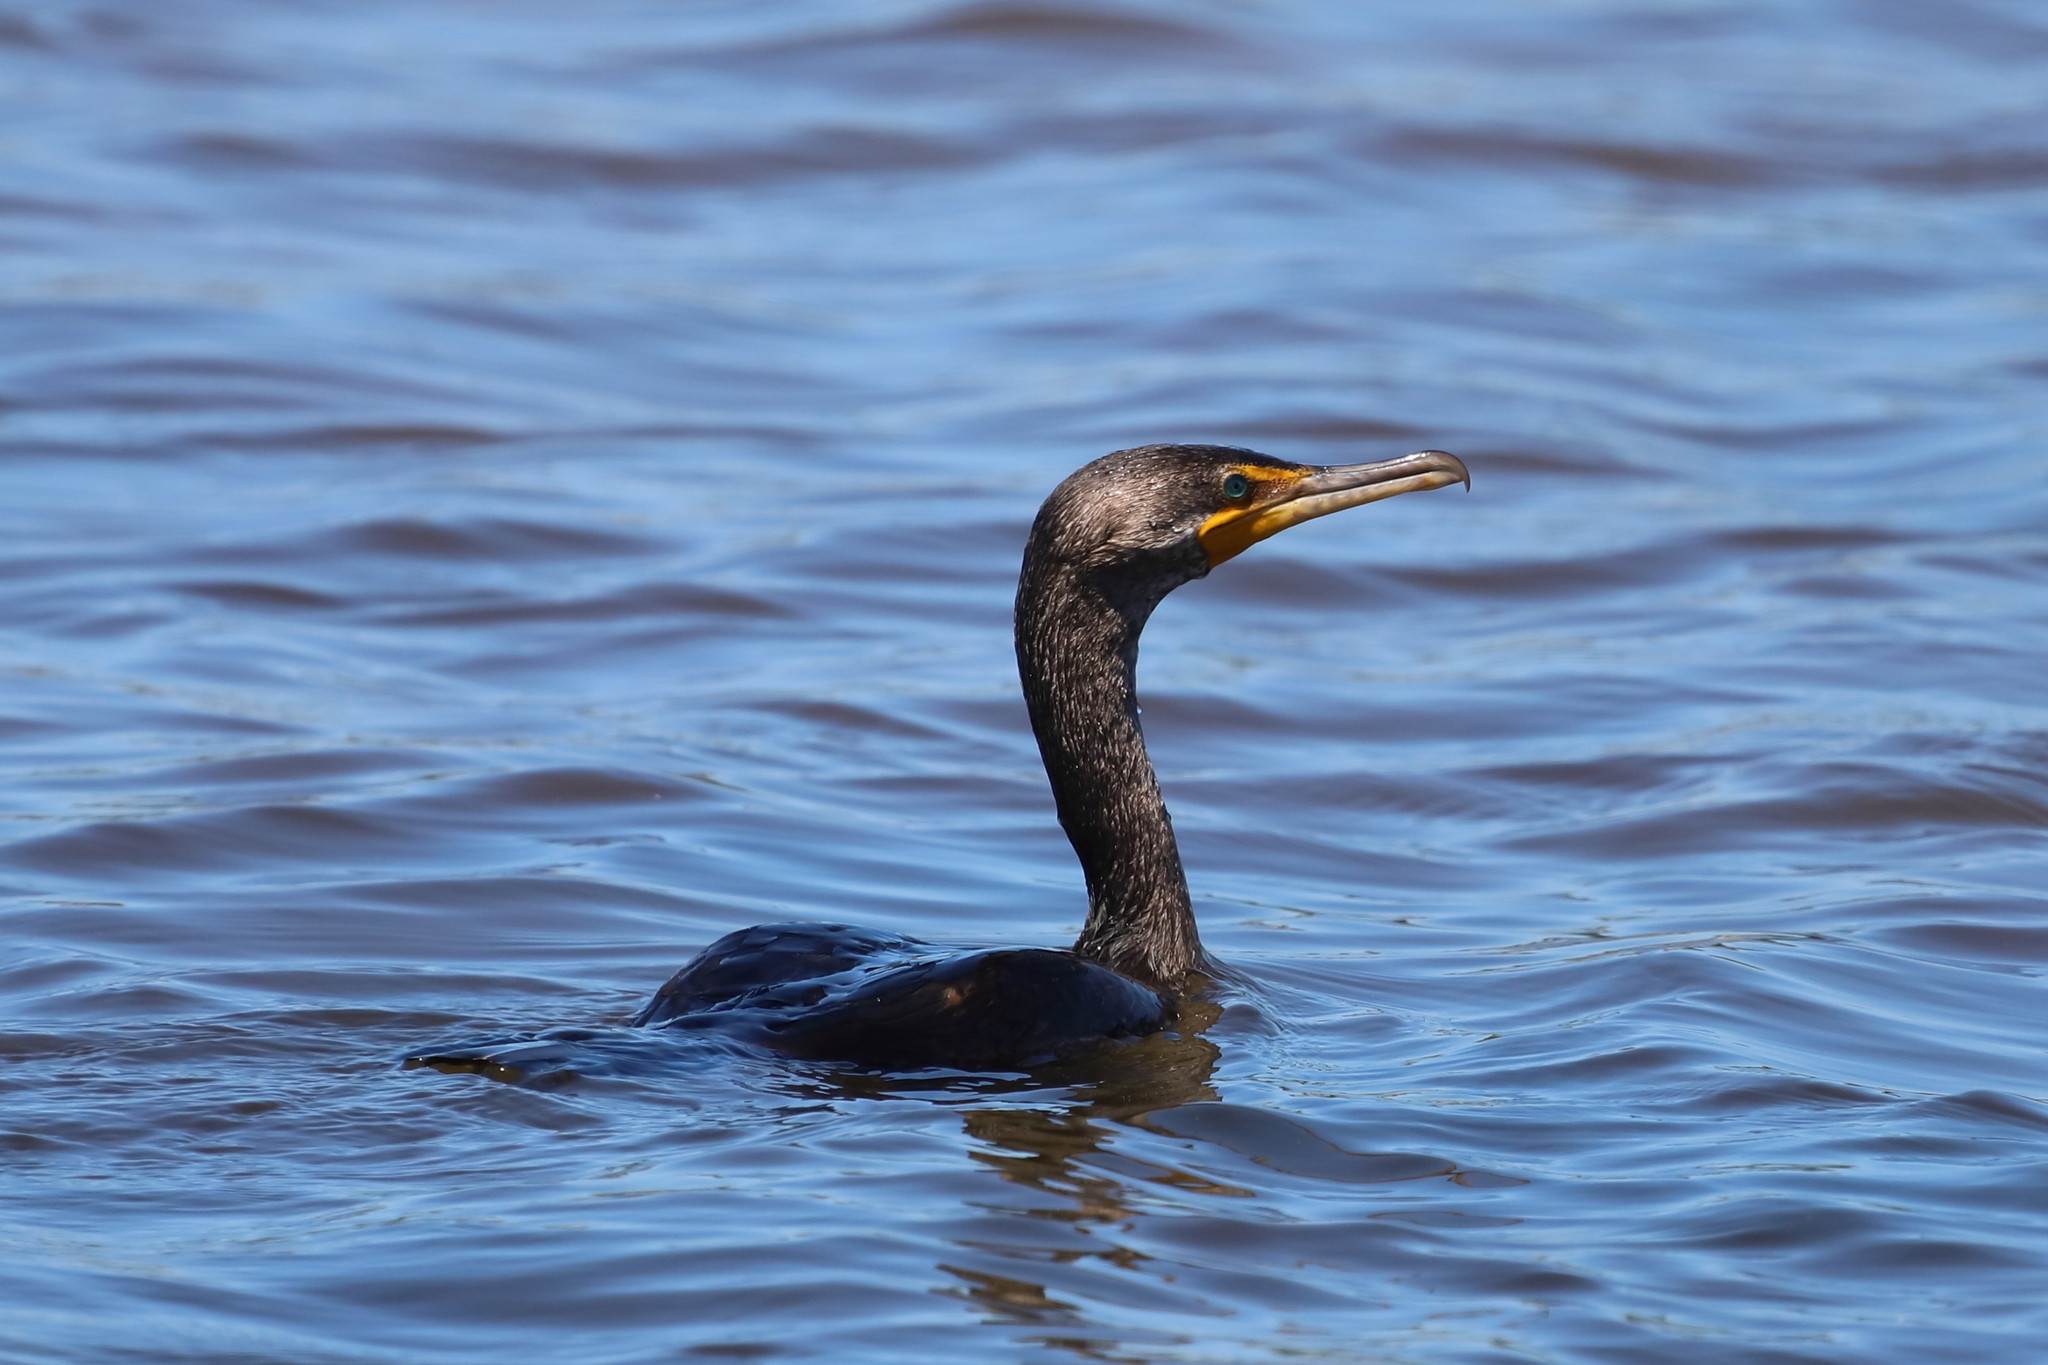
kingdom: Animalia
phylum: Chordata
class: Aves
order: Suliformes
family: Phalacrocoracidae
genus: Phalacrocorax
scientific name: Phalacrocorax auritus
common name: Double-crested cormorant
